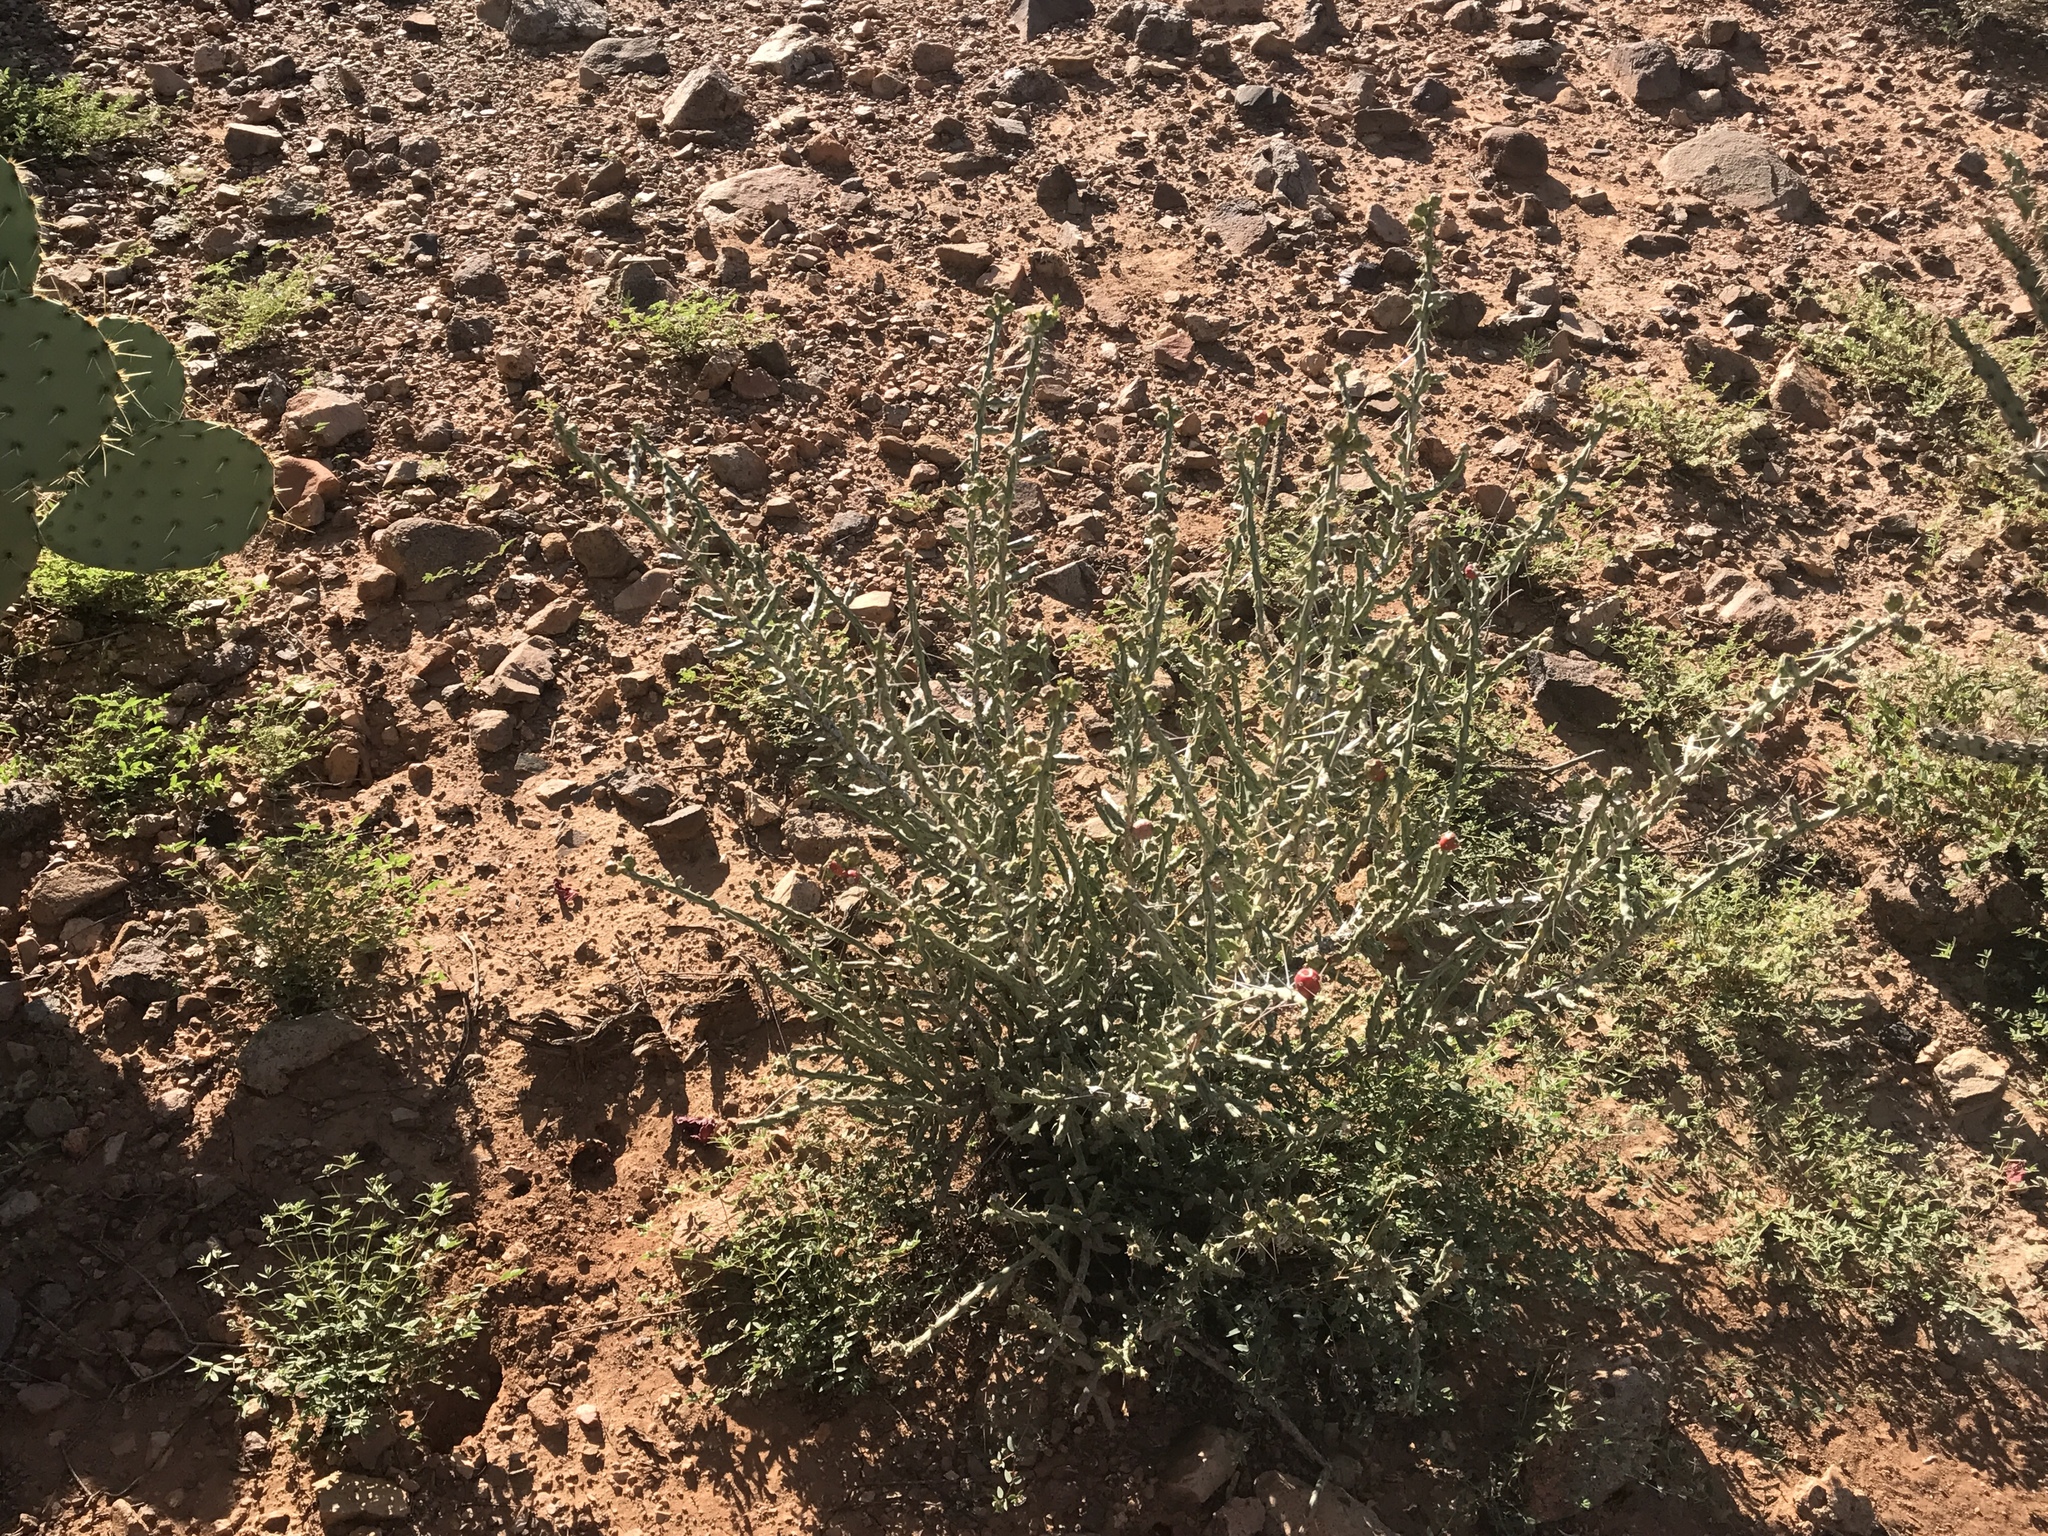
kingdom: Plantae
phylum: Tracheophyta
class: Magnoliopsida
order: Caryophyllales
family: Cactaceae
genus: Cylindropuntia
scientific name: Cylindropuntia leptocaulis
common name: Christmas cactus
